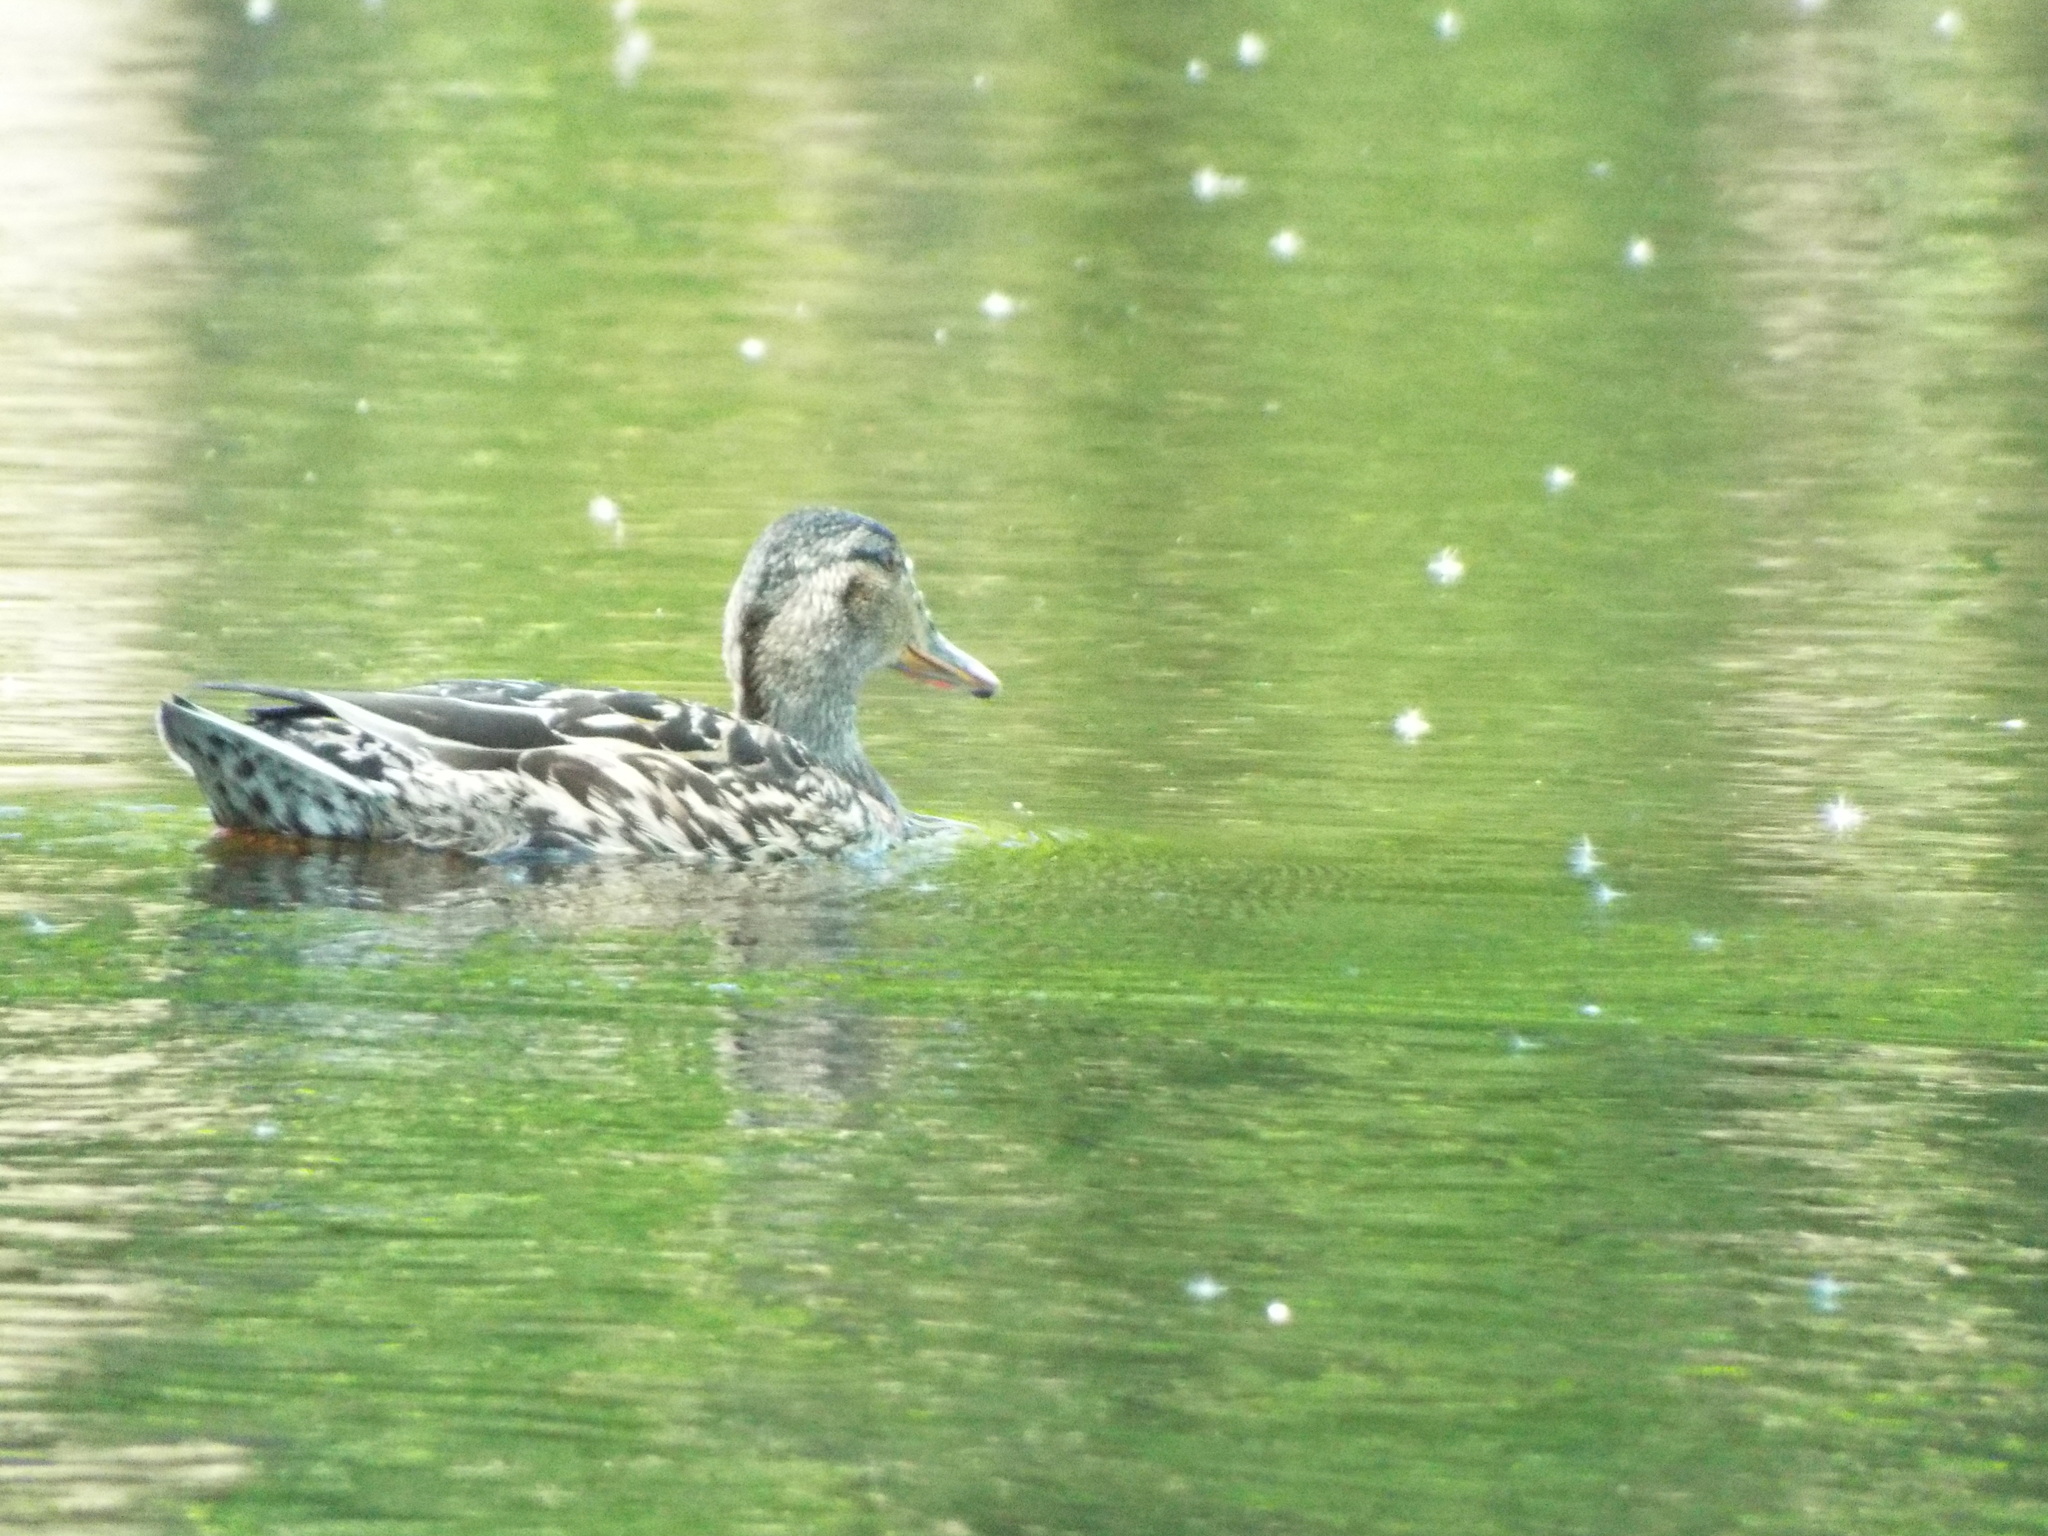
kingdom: Animalia
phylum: Chordata
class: Aves
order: Anseriformes
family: Anatidae
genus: Anas
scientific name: Anas platyrhynchos
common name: Mallard
